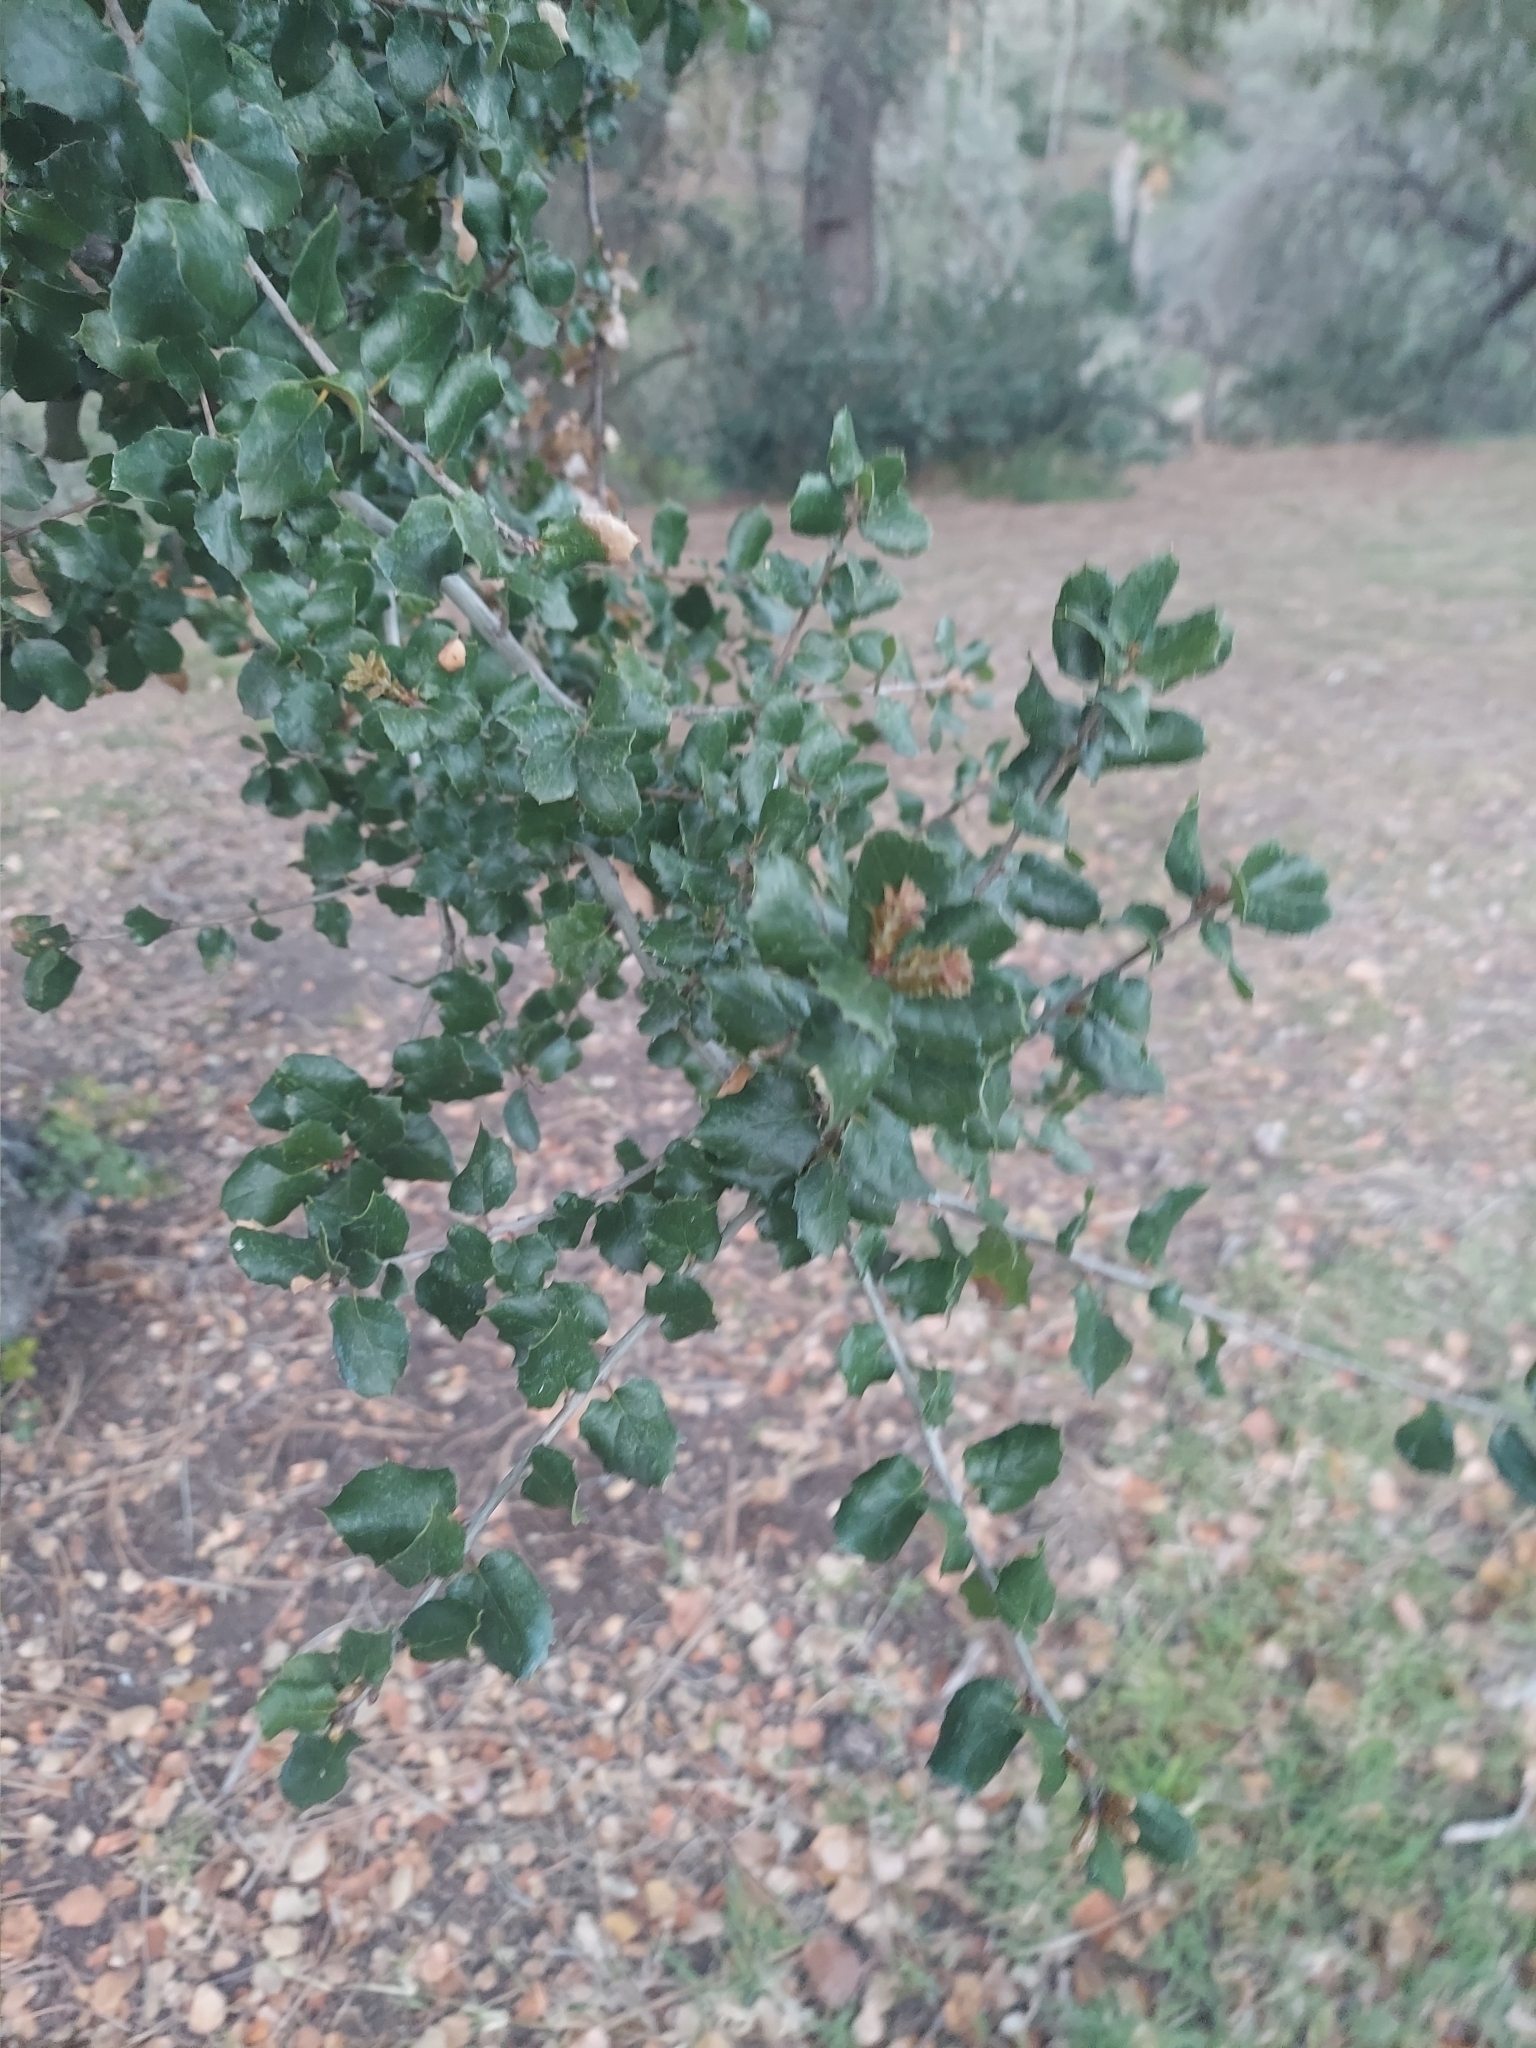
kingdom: Plantae
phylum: Tracheophyta
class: Magnoliopsida
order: Fagales
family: Fagaceae
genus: Quercus
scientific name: Quercus agrifolia
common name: California live oak
